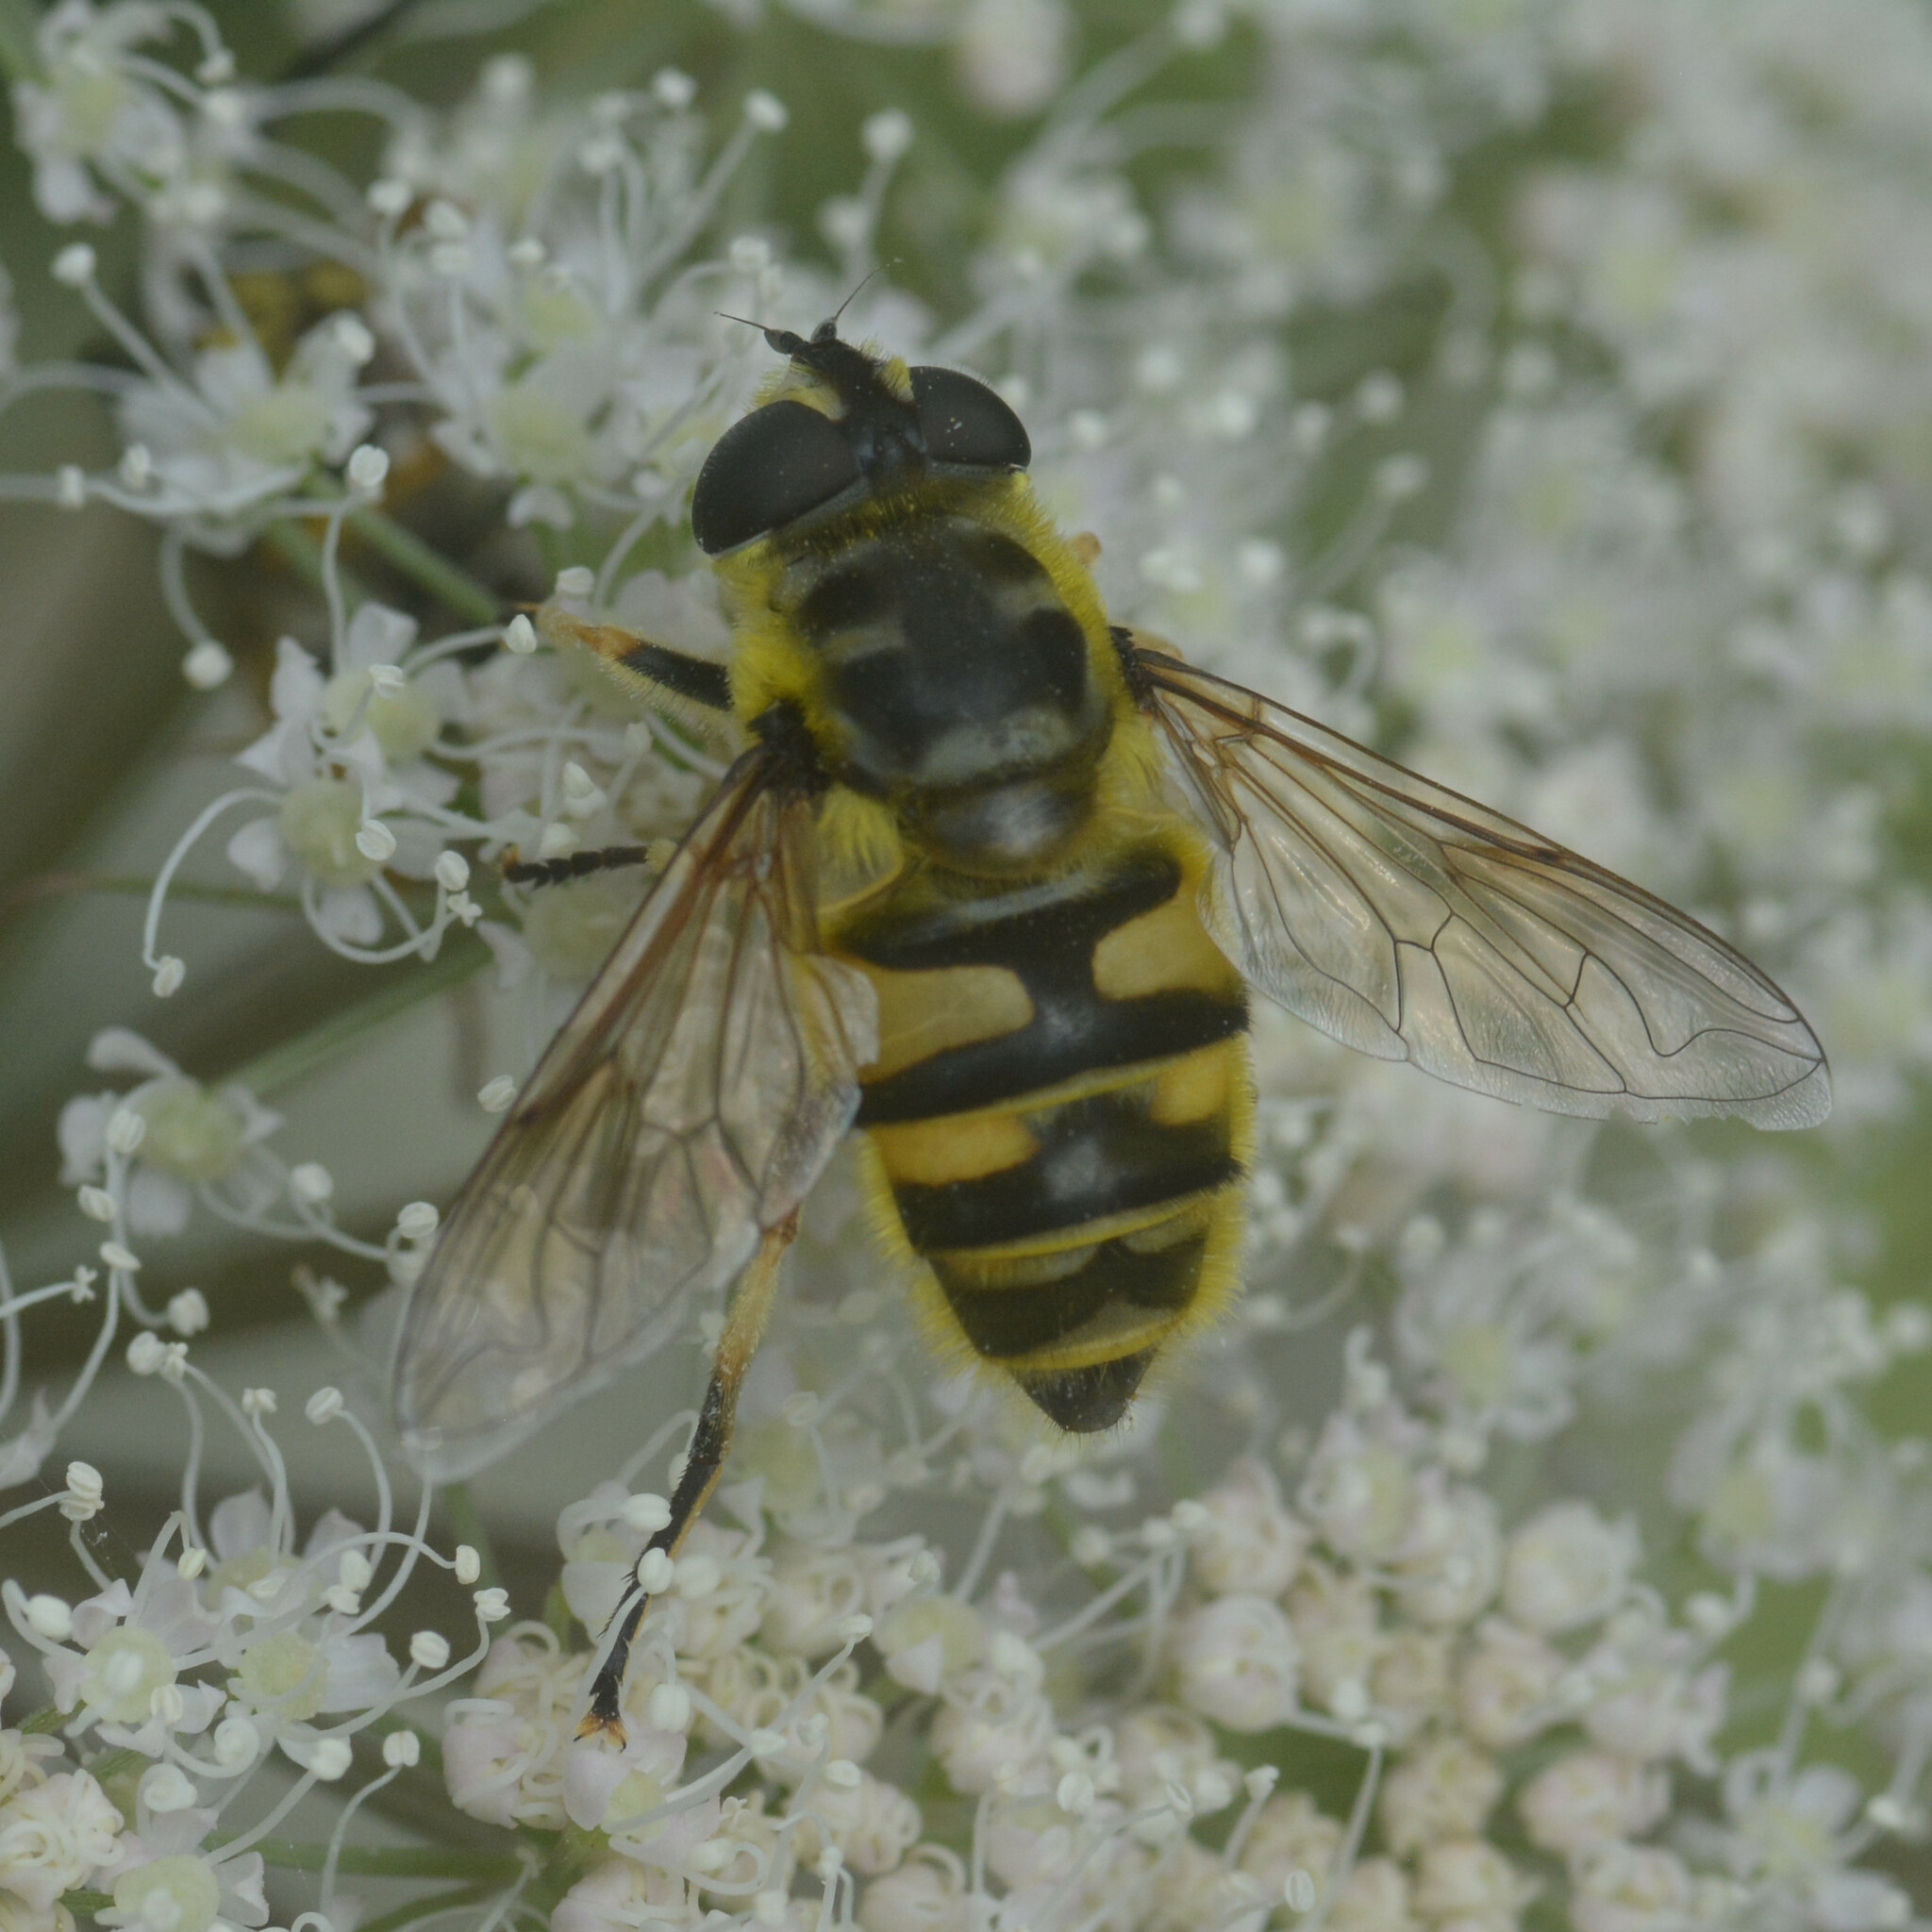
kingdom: Animalia
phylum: Arthropoda
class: Insecta
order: Diptera
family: Syrphidae
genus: Myathropa
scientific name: Myathropa florea
